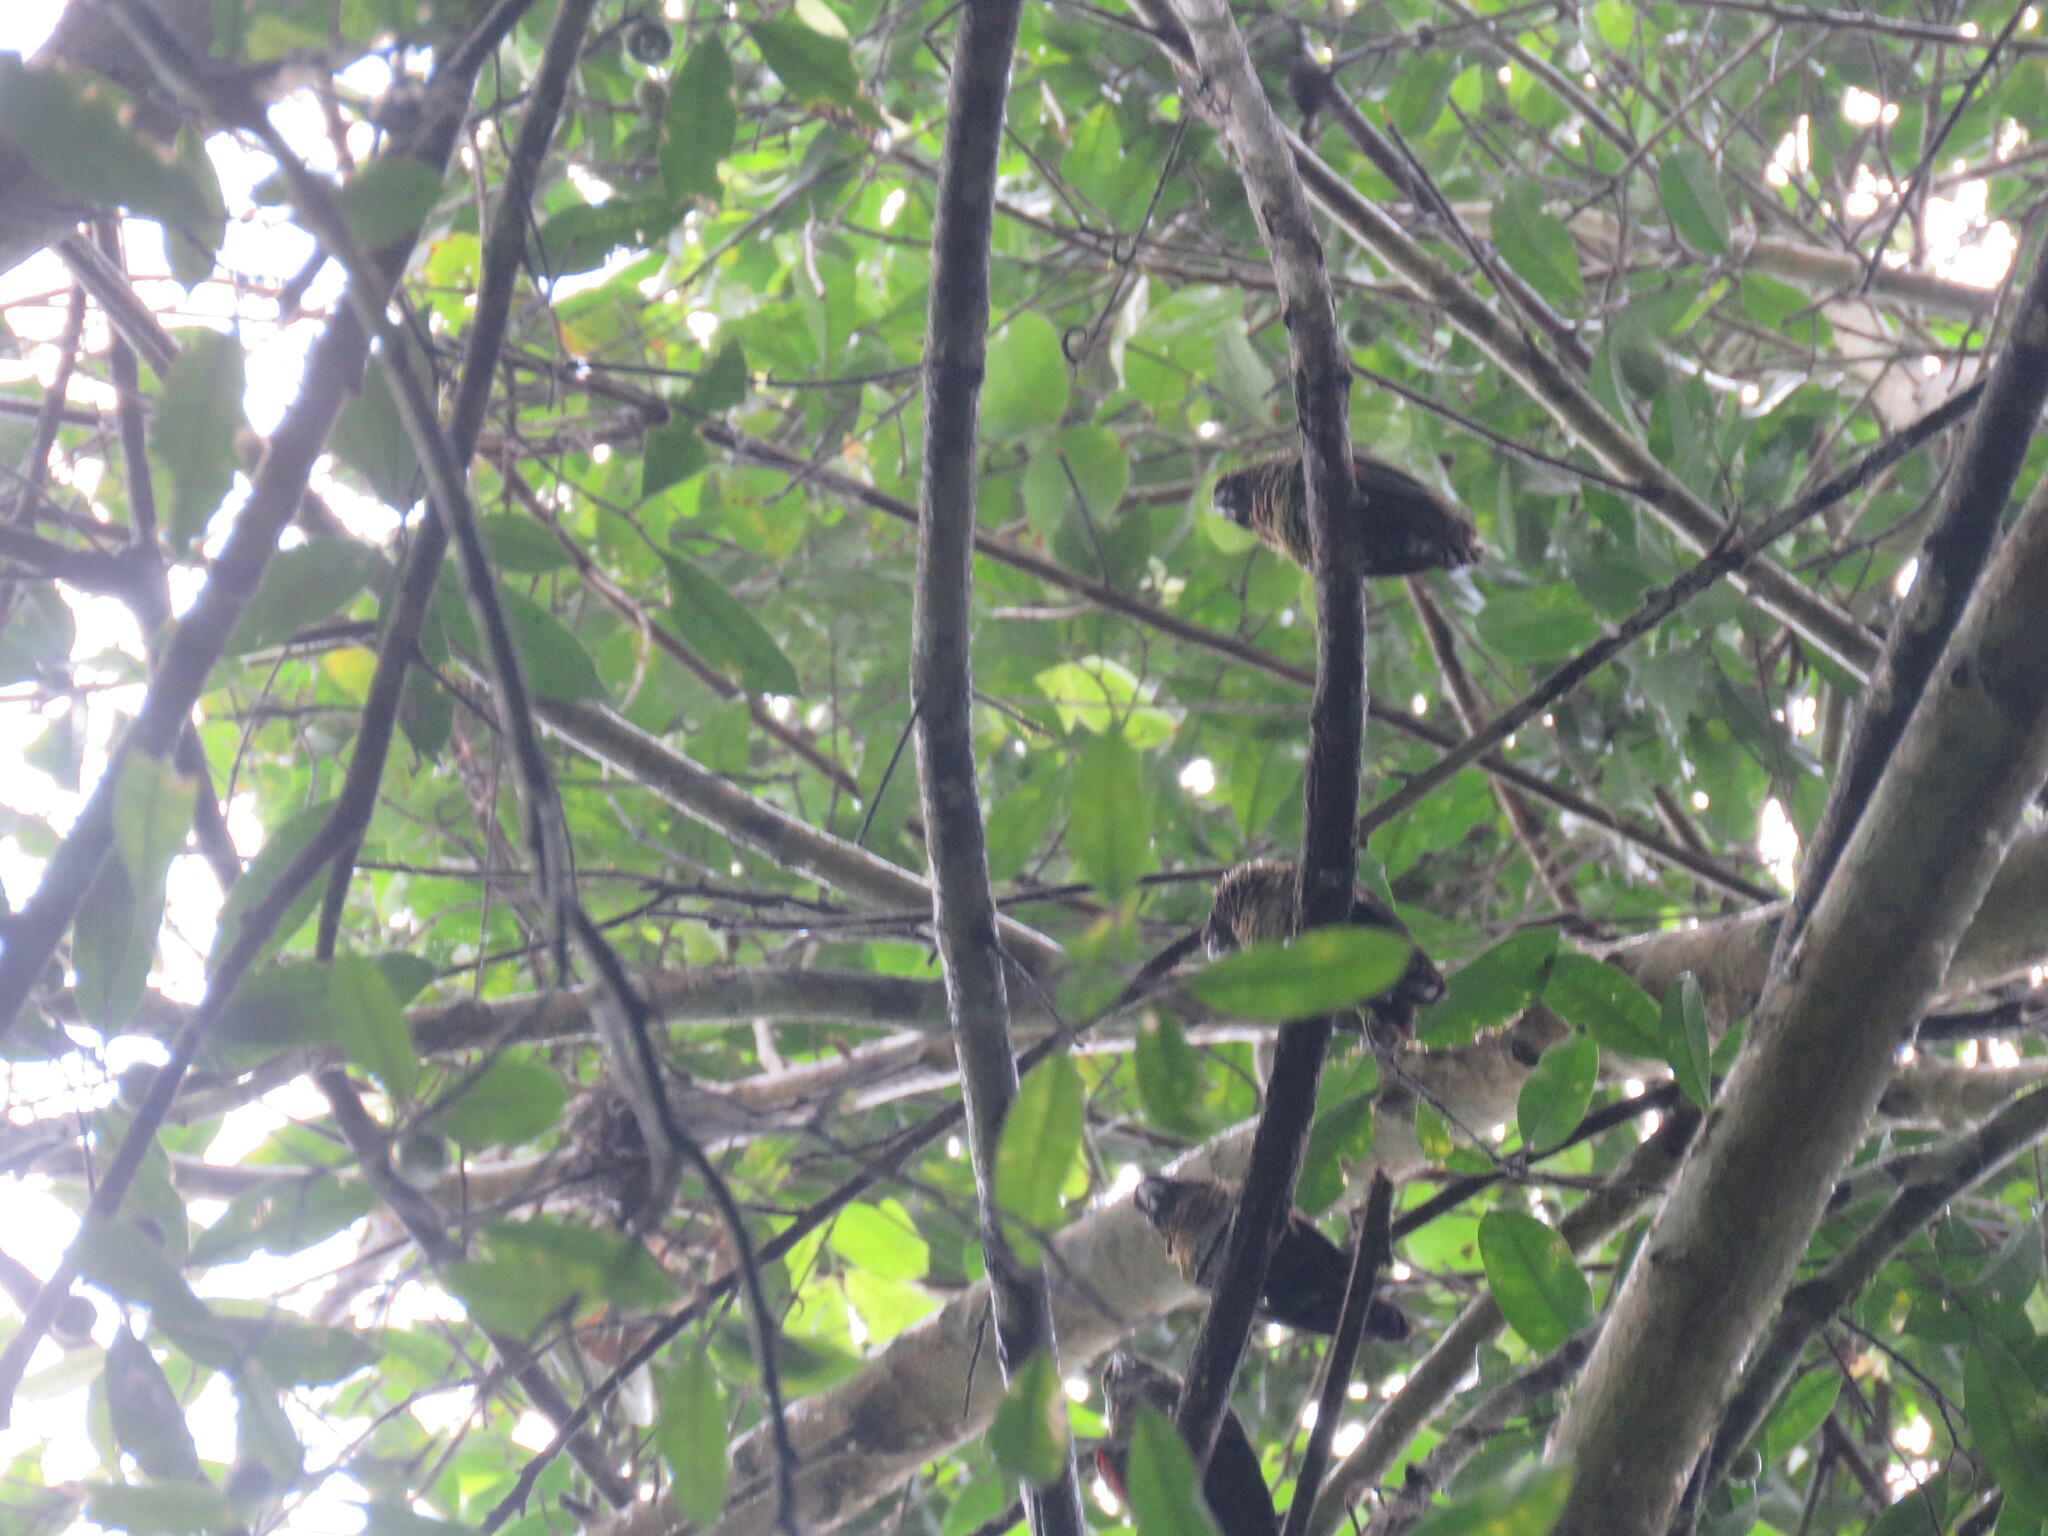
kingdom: Animalia
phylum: Chordata
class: Aves
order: Psittaciformes
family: Psittacidae
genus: Pyrrhura
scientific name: Pyrrhura rupicola
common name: Black-capped parakeet
